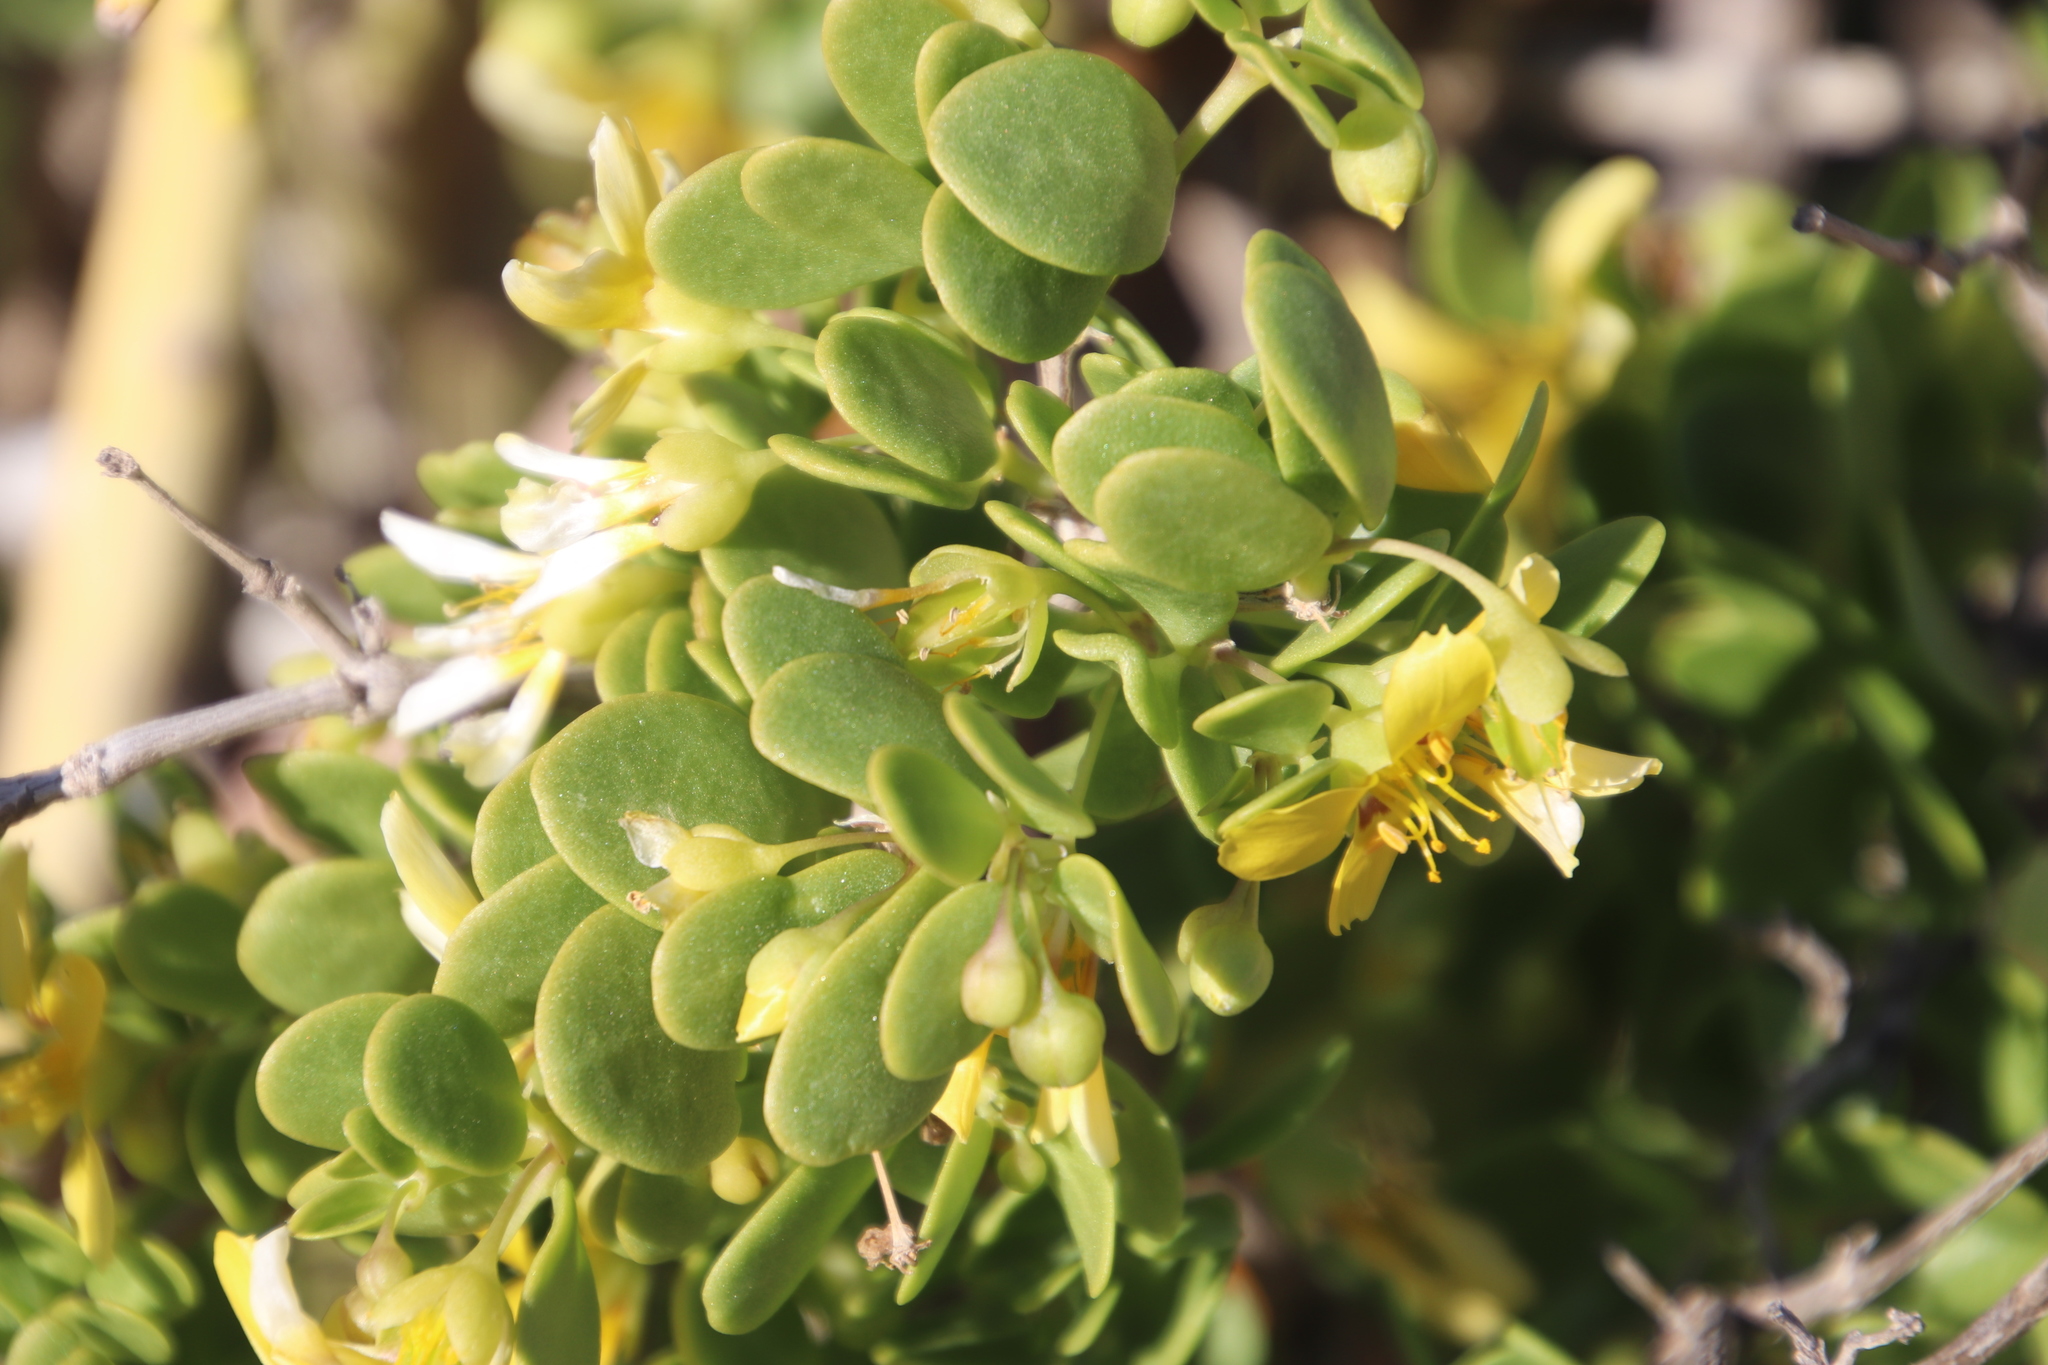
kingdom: Plantae
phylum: Tracheophyta
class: Magnoliopsida
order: Zygophyllales
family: Zygophyllaceae
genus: Roepera
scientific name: Roepera morgsana
